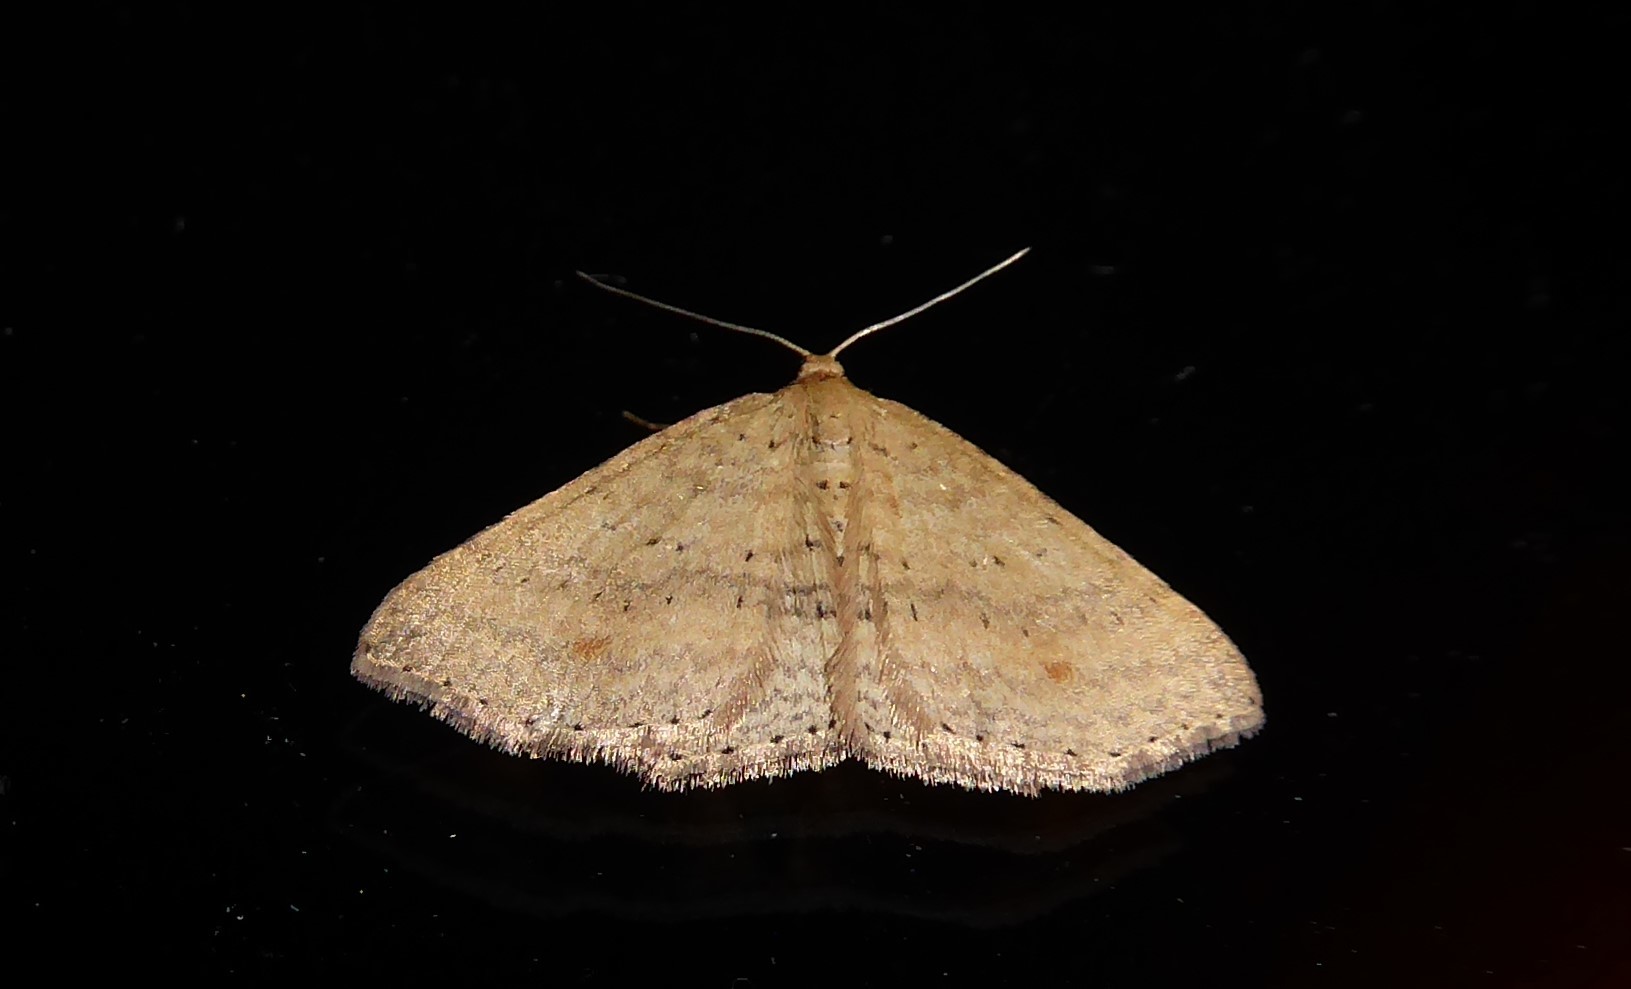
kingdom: Animalia
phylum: Arthropoda
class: Insecta
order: Lepidoptera
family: Geometridae
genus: Epicyme
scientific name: Epicyme rubropunctaria
